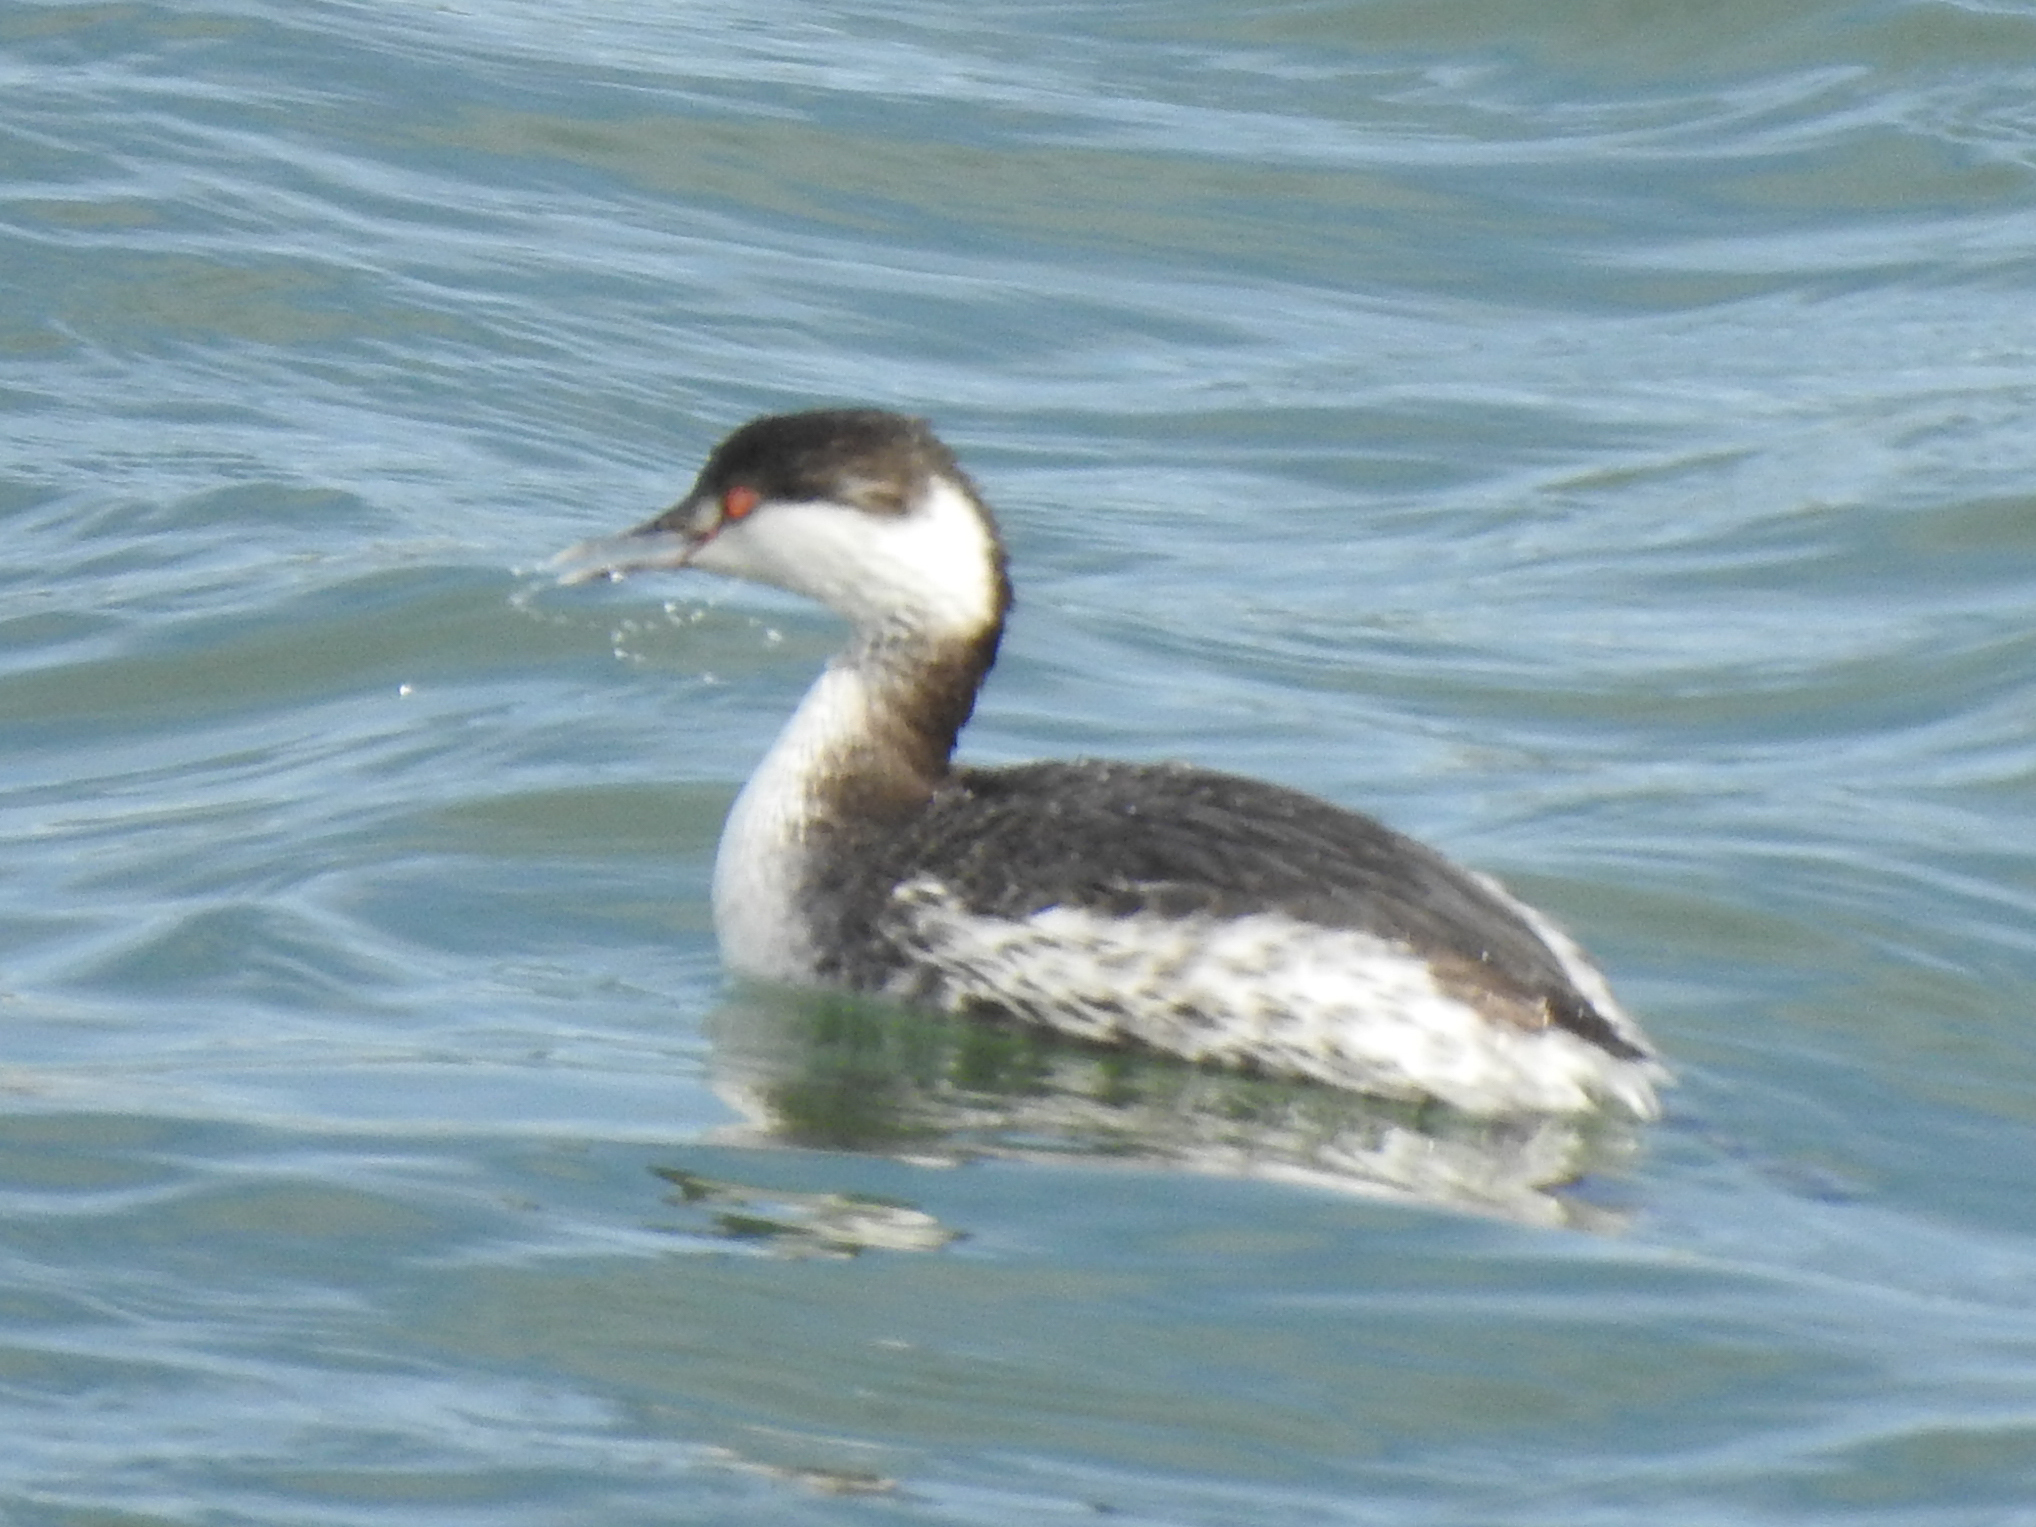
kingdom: Animalia
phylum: Chordata
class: Aves
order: Podicipediformes
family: Podicipedidae
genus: Podiceps
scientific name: Podiceps auritus
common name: Horned grebe
